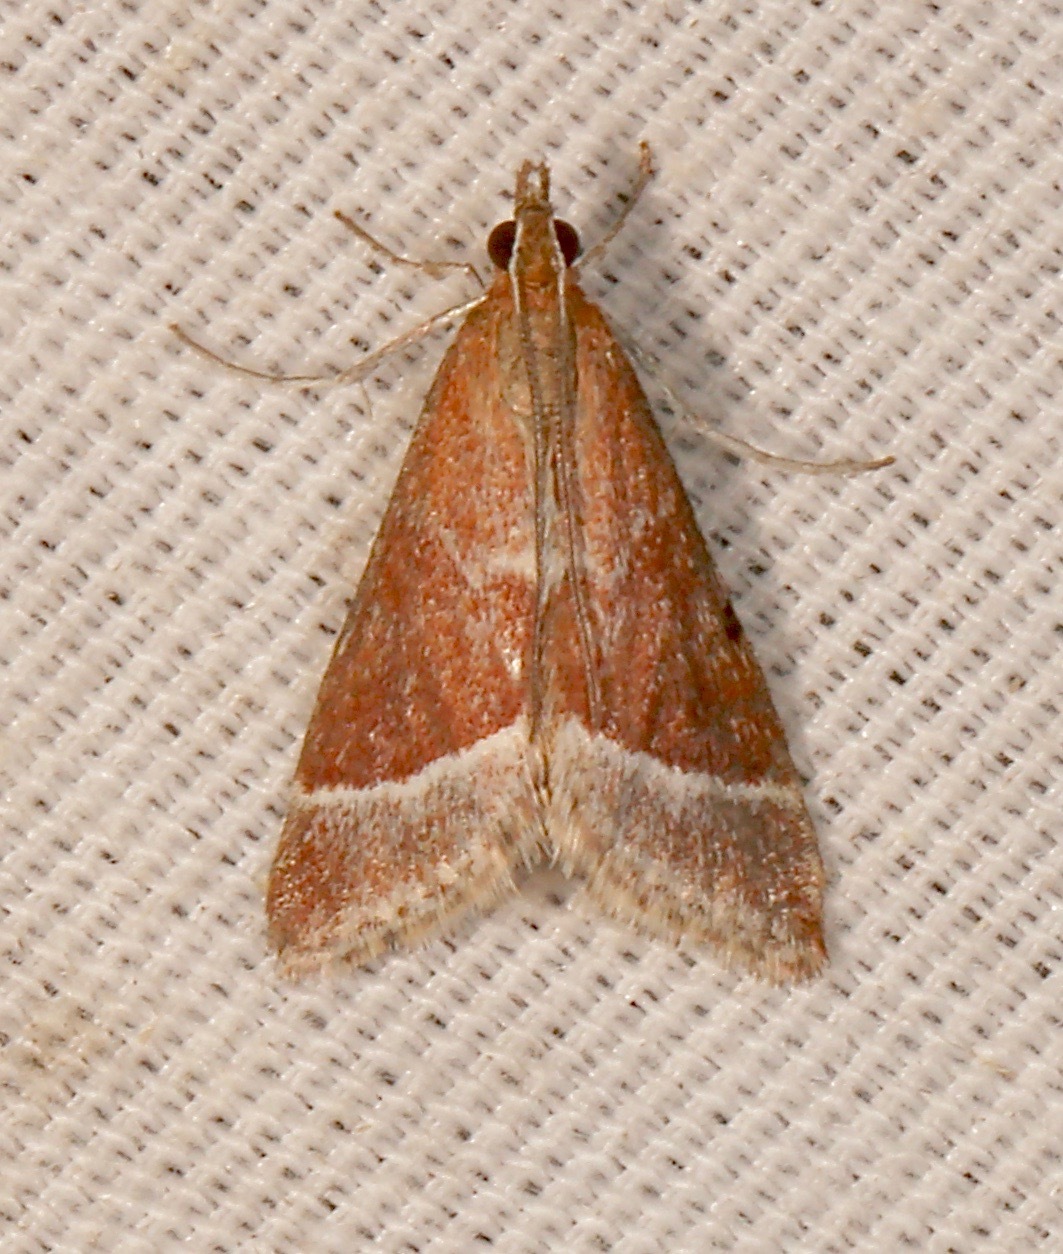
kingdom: Animalia
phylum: Arthropoda
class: Insecta
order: Lepidoptera
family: Crambidae
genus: Pyrausta
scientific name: Pyrausta lethalis
